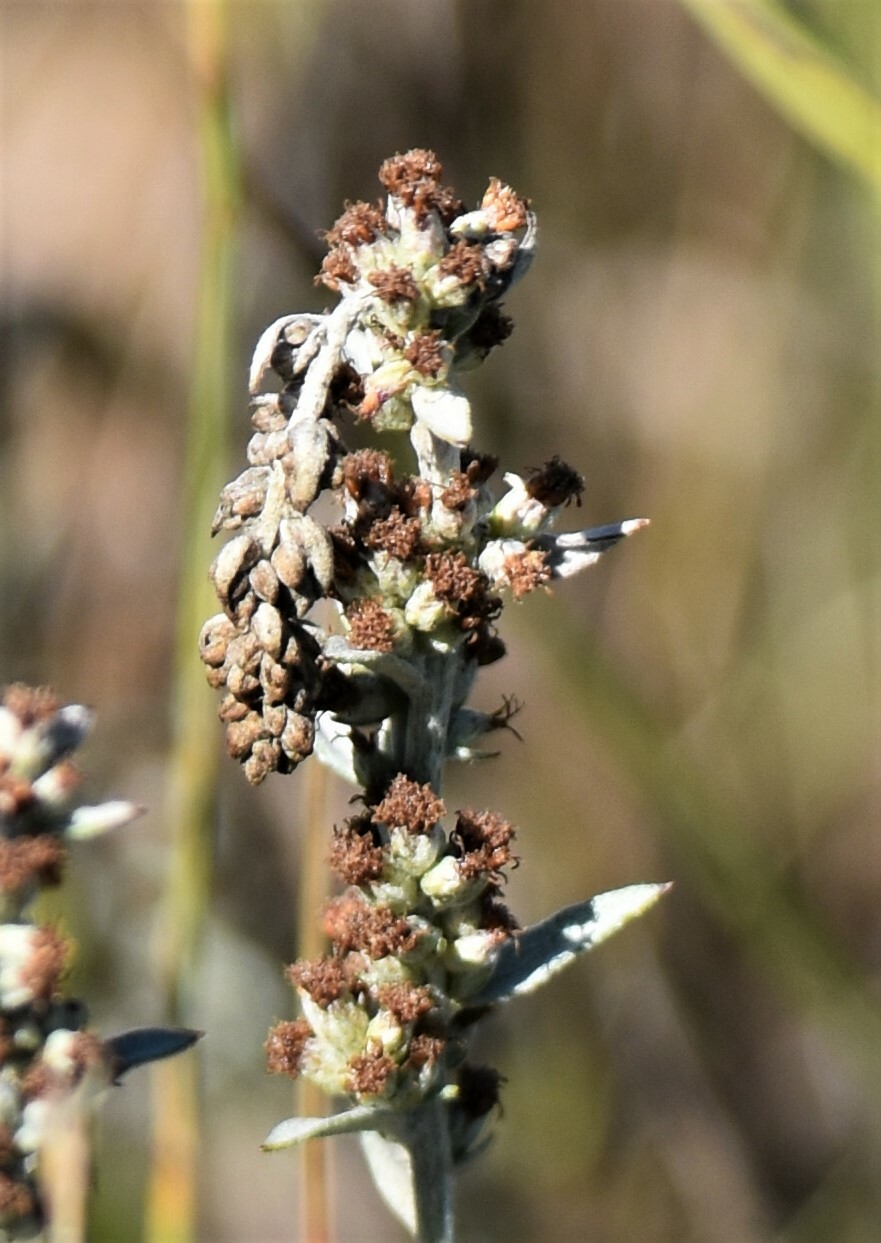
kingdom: Plantae
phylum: Tracheophyta
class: Magnoliopsida
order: Asterales
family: Asteraceae
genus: Artemisia
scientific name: Artemisia ludoviciana
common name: Western mugwort
